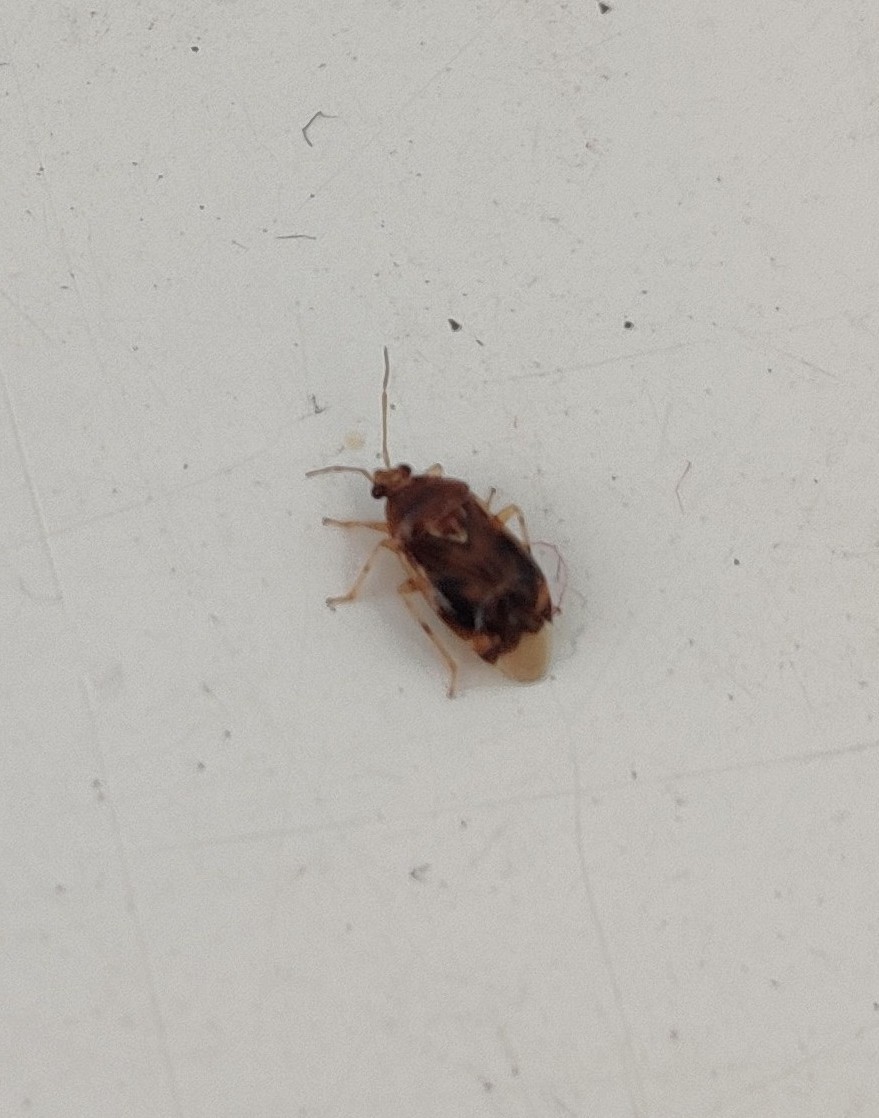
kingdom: Animalia
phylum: Arthropoda
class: Insecta
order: Hemiptera
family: Miridae
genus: Deraeocoris
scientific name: Deraeocoris lutescens
